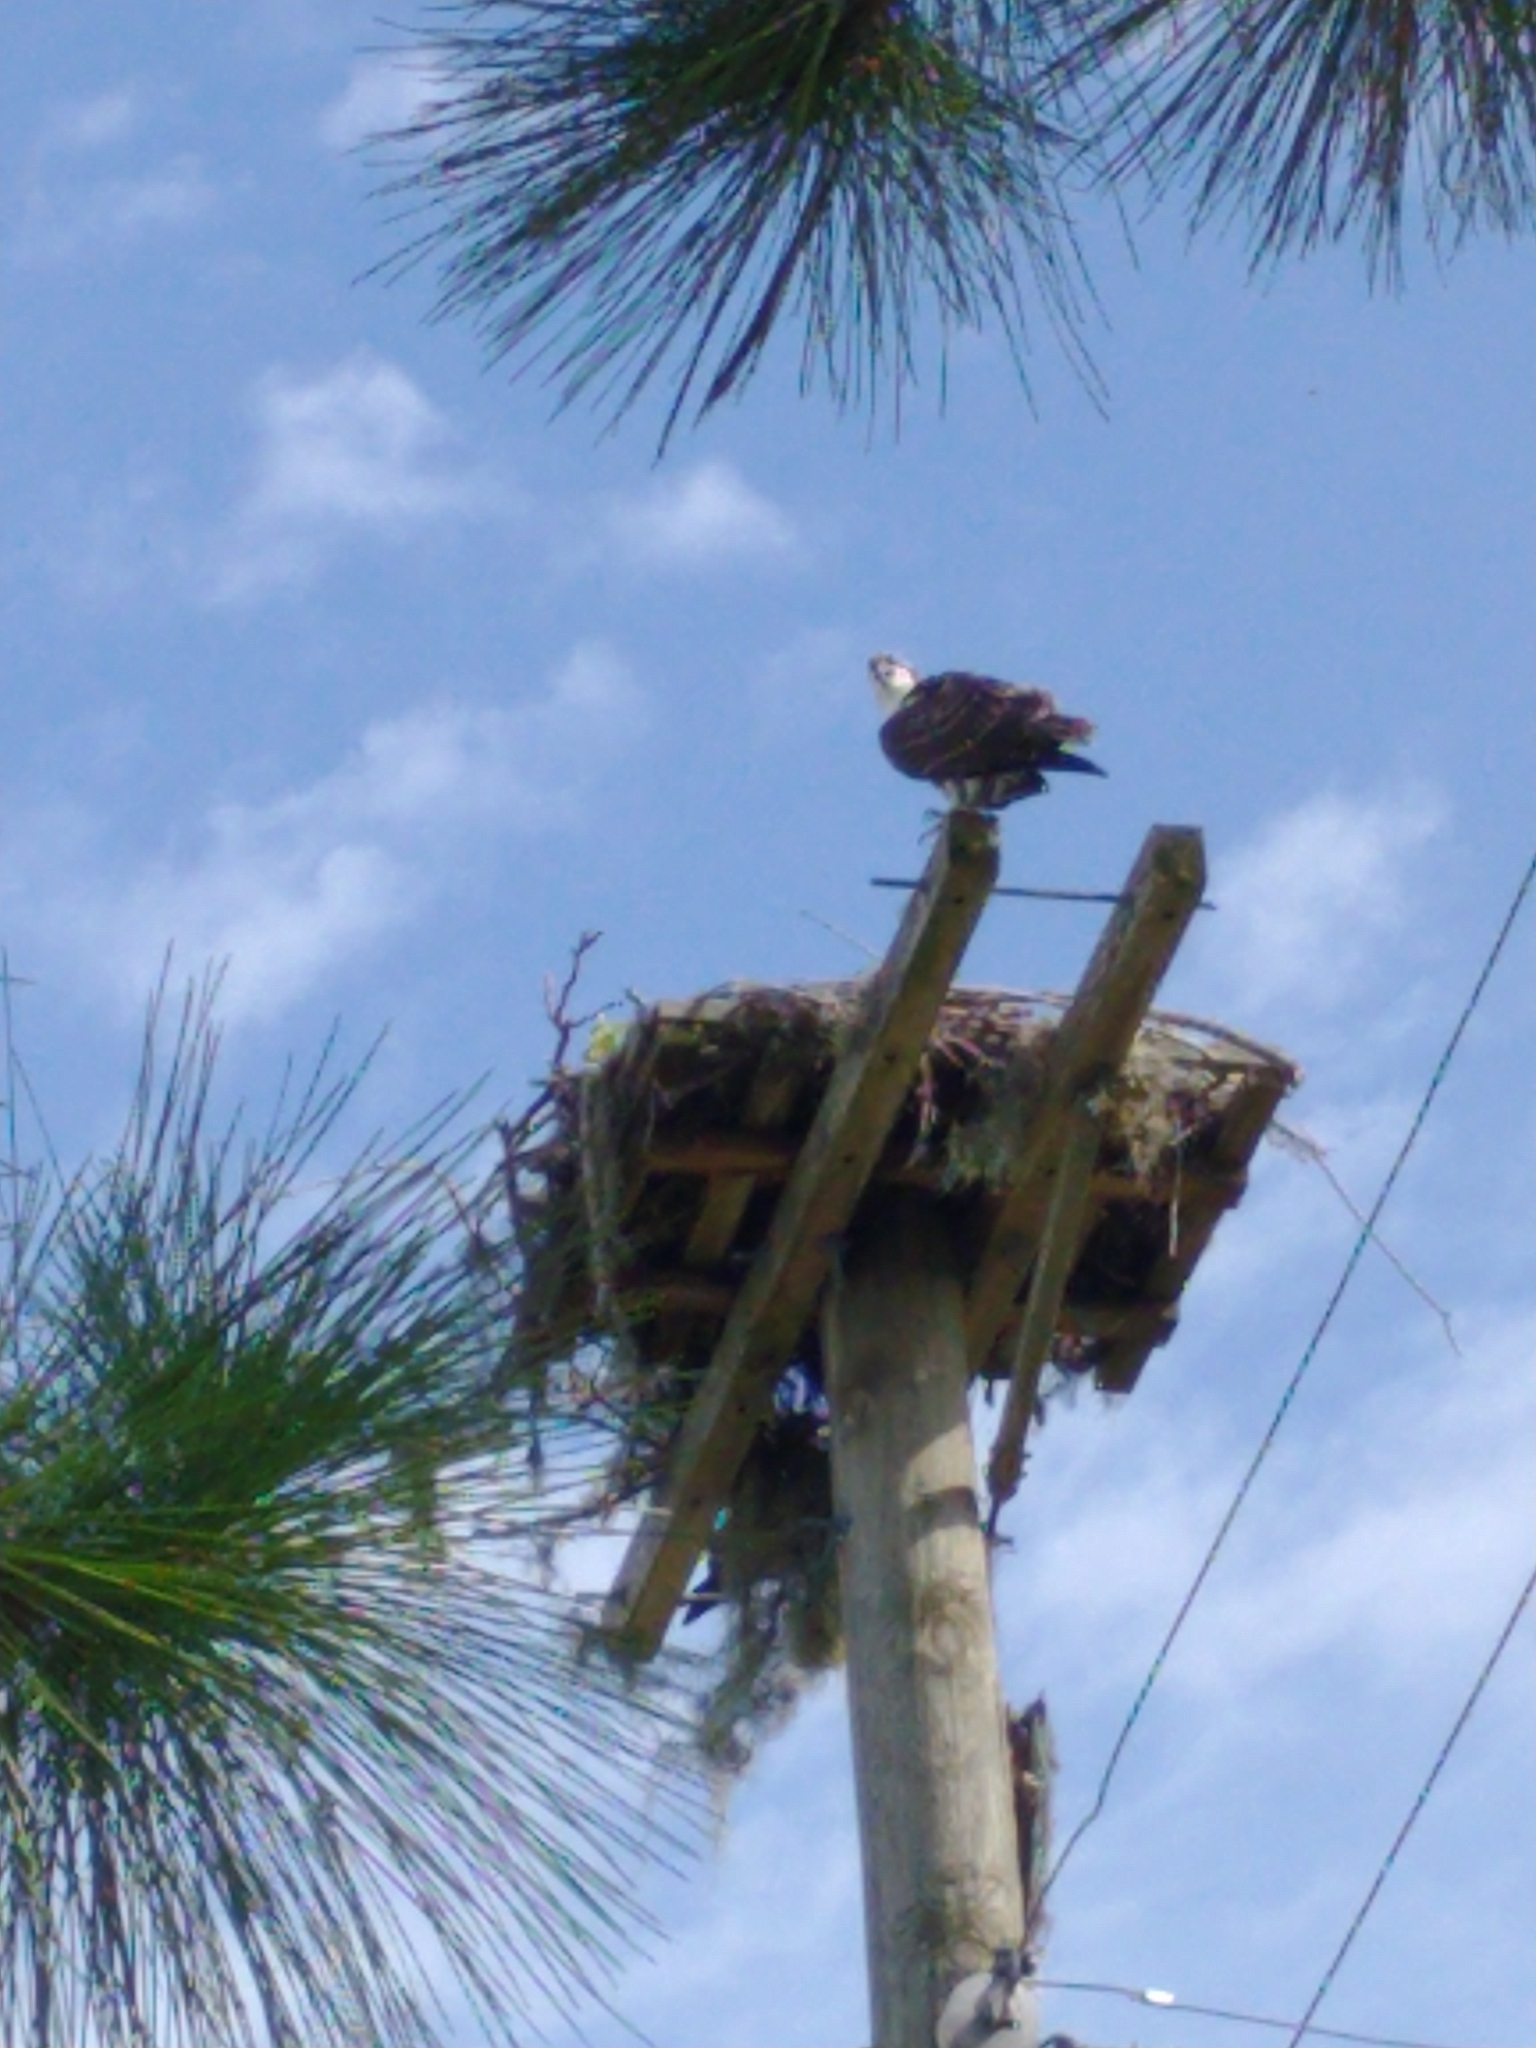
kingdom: Animalia
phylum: Chordata
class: Aves
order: Accipitriformes
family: Pandionidae
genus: Pandion
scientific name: Pandion haliaetus
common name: Osprey
